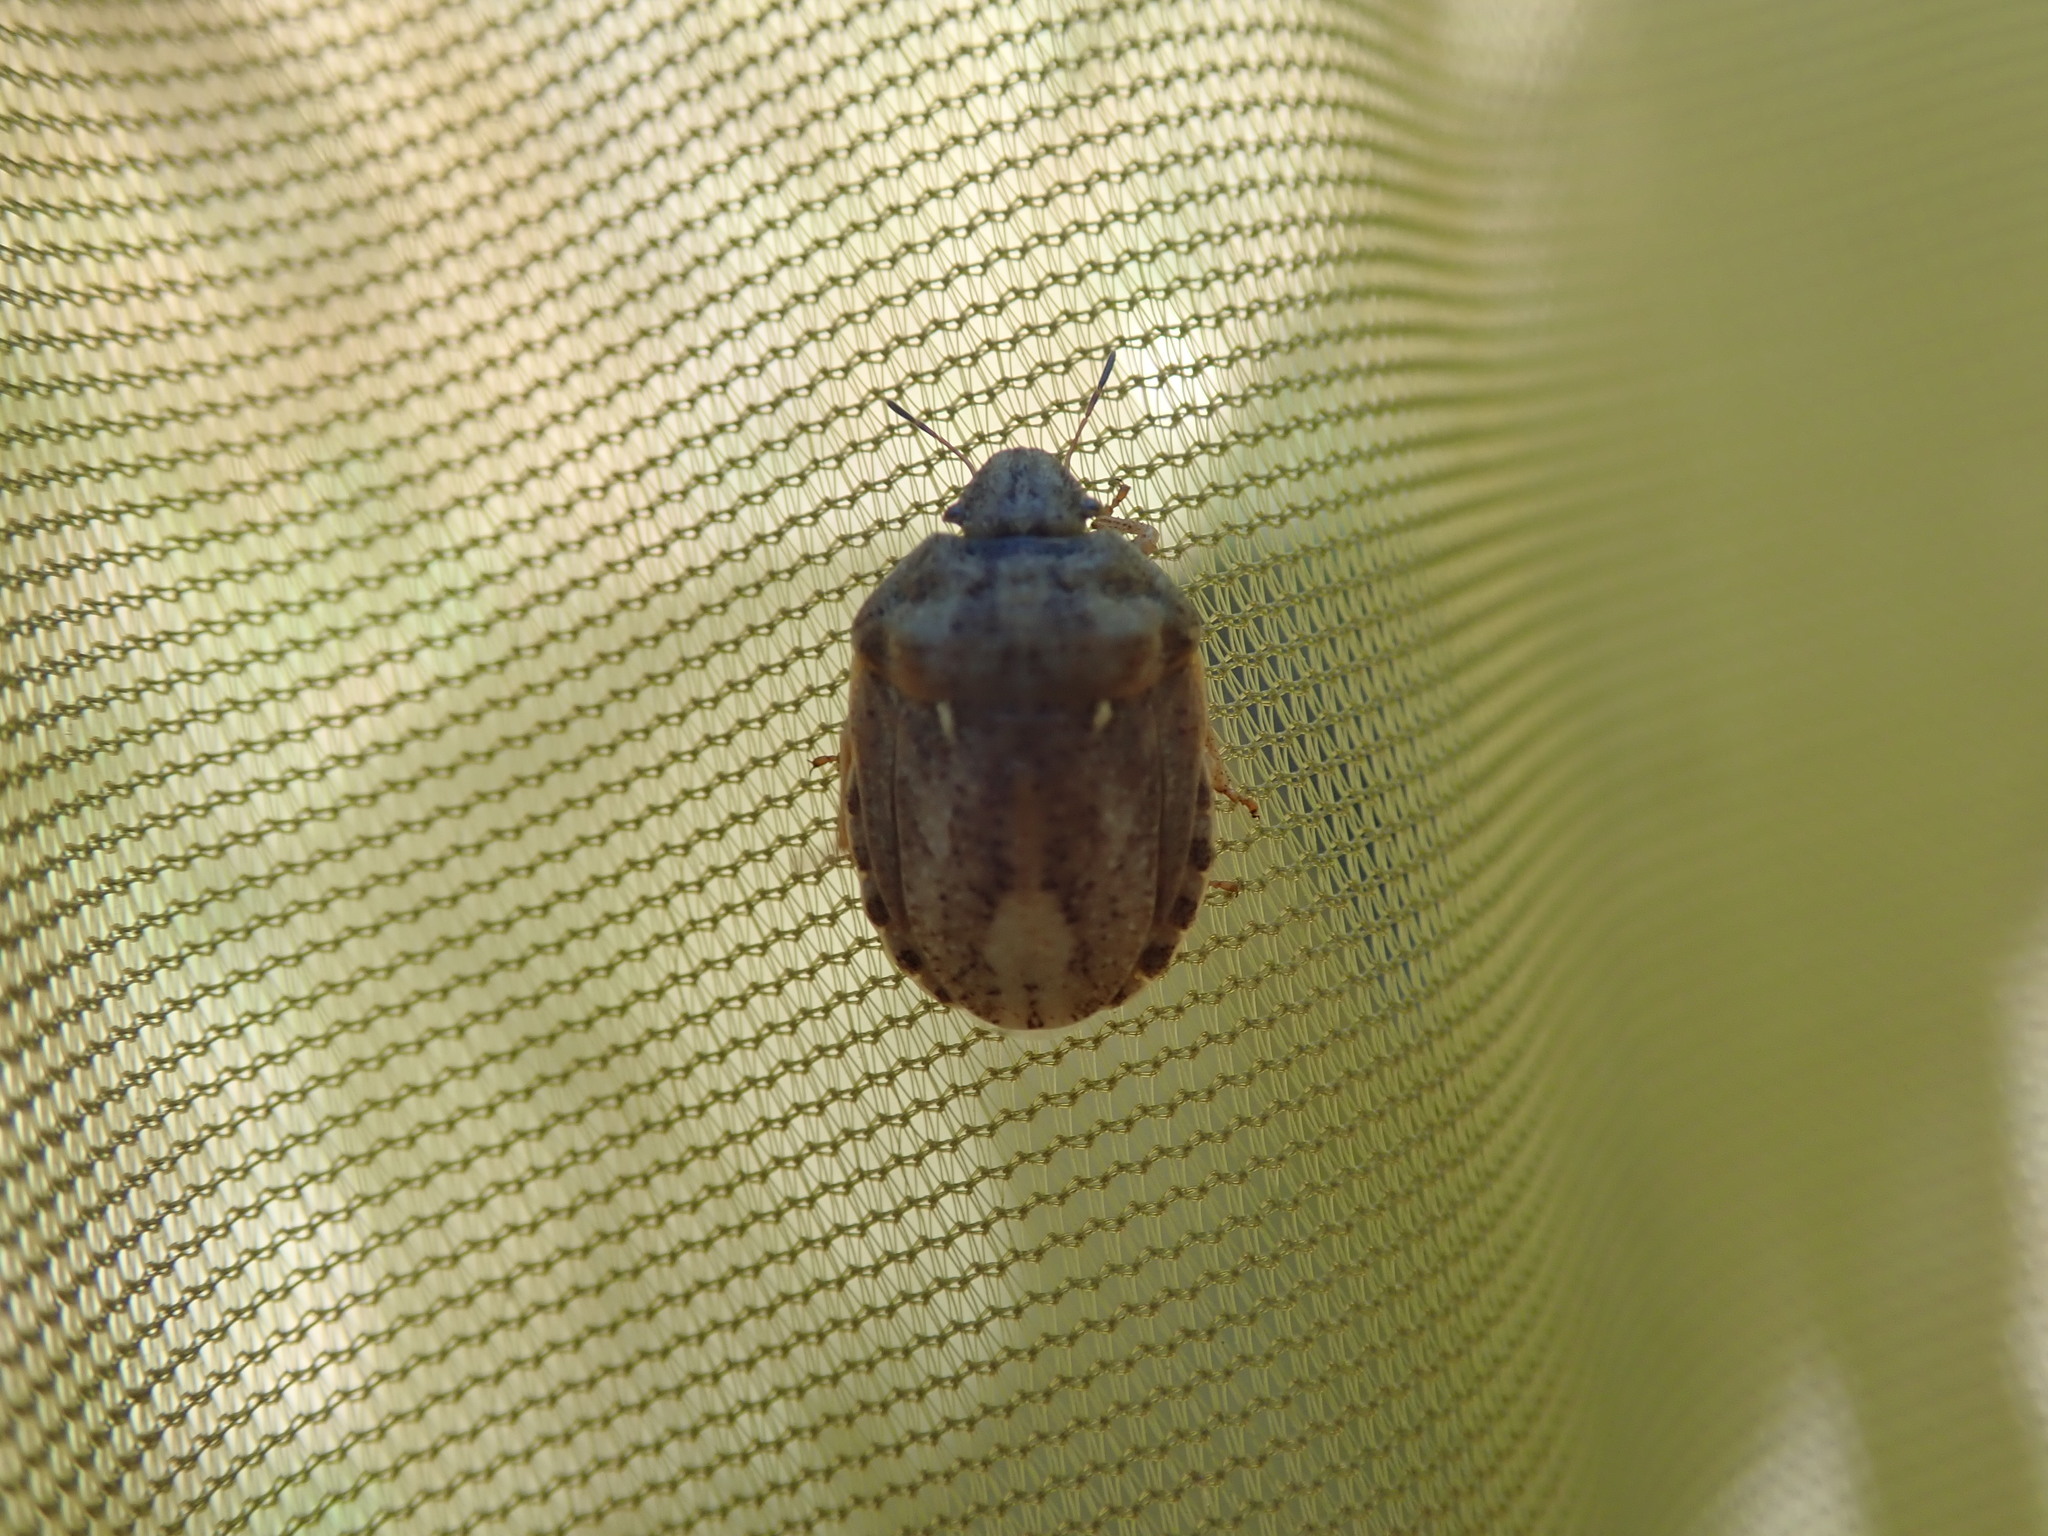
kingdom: Animalia
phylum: Arthropoda
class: Insecta
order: Hemiptera
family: Scutelleridae
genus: Eurygaster
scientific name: Eurygaster maura
